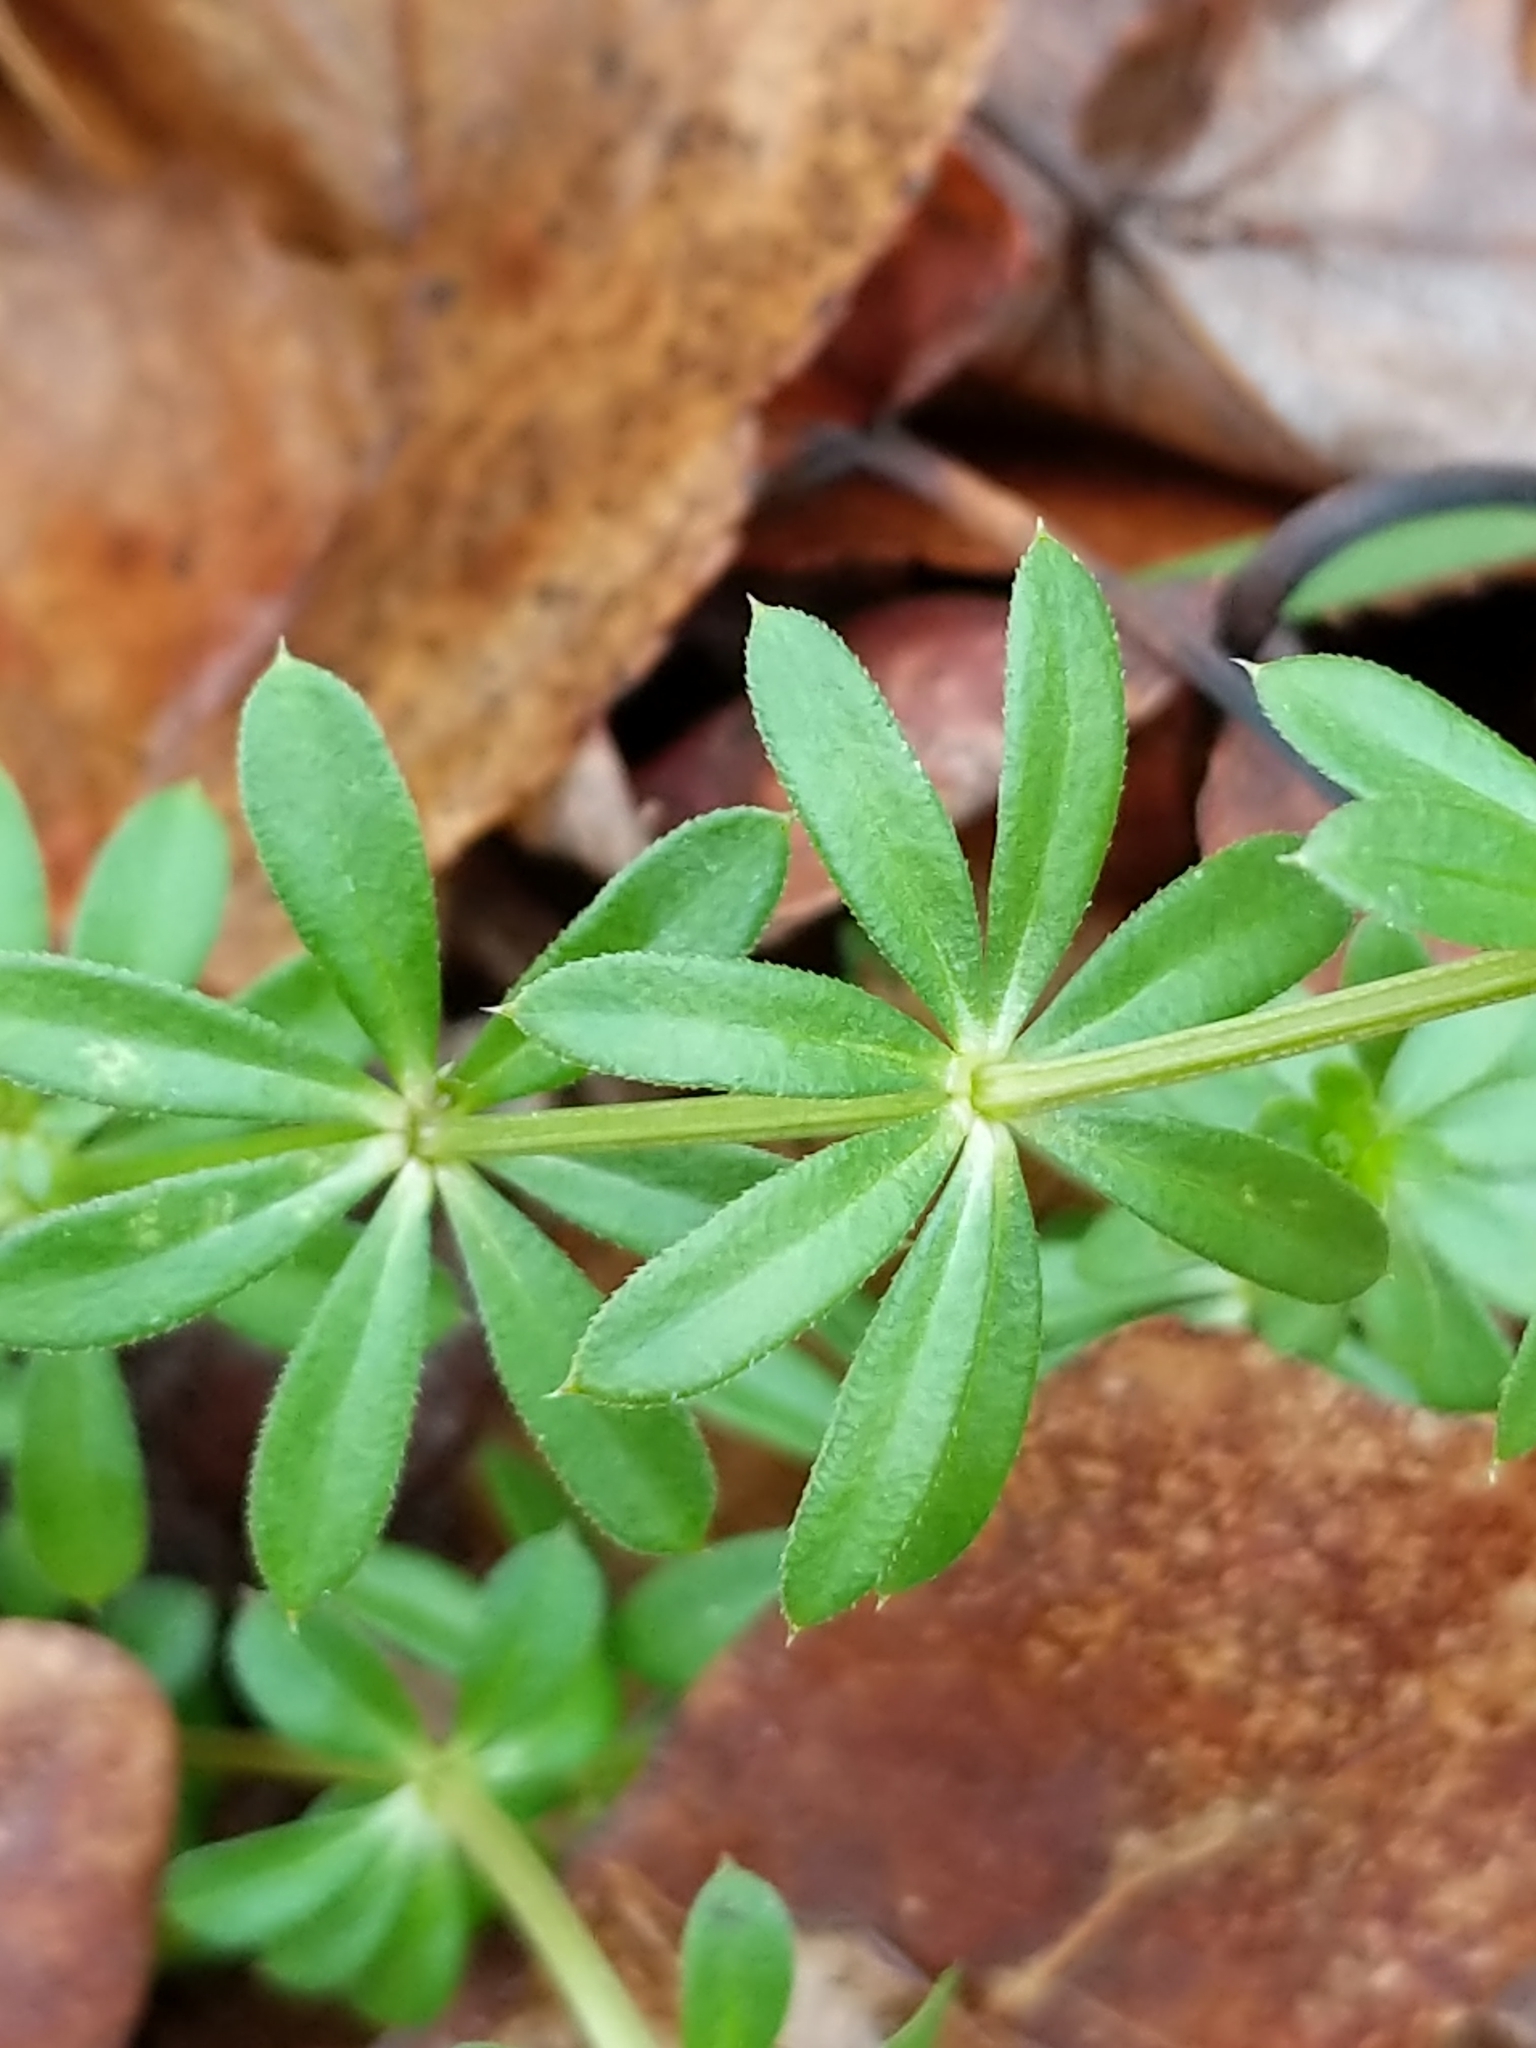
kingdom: Plantae
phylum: Tracheophyta
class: Magnoliopsida
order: Gentianales
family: Rubiaceae
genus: Galium
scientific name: Galium mollugo
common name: Hedge bedstraw
